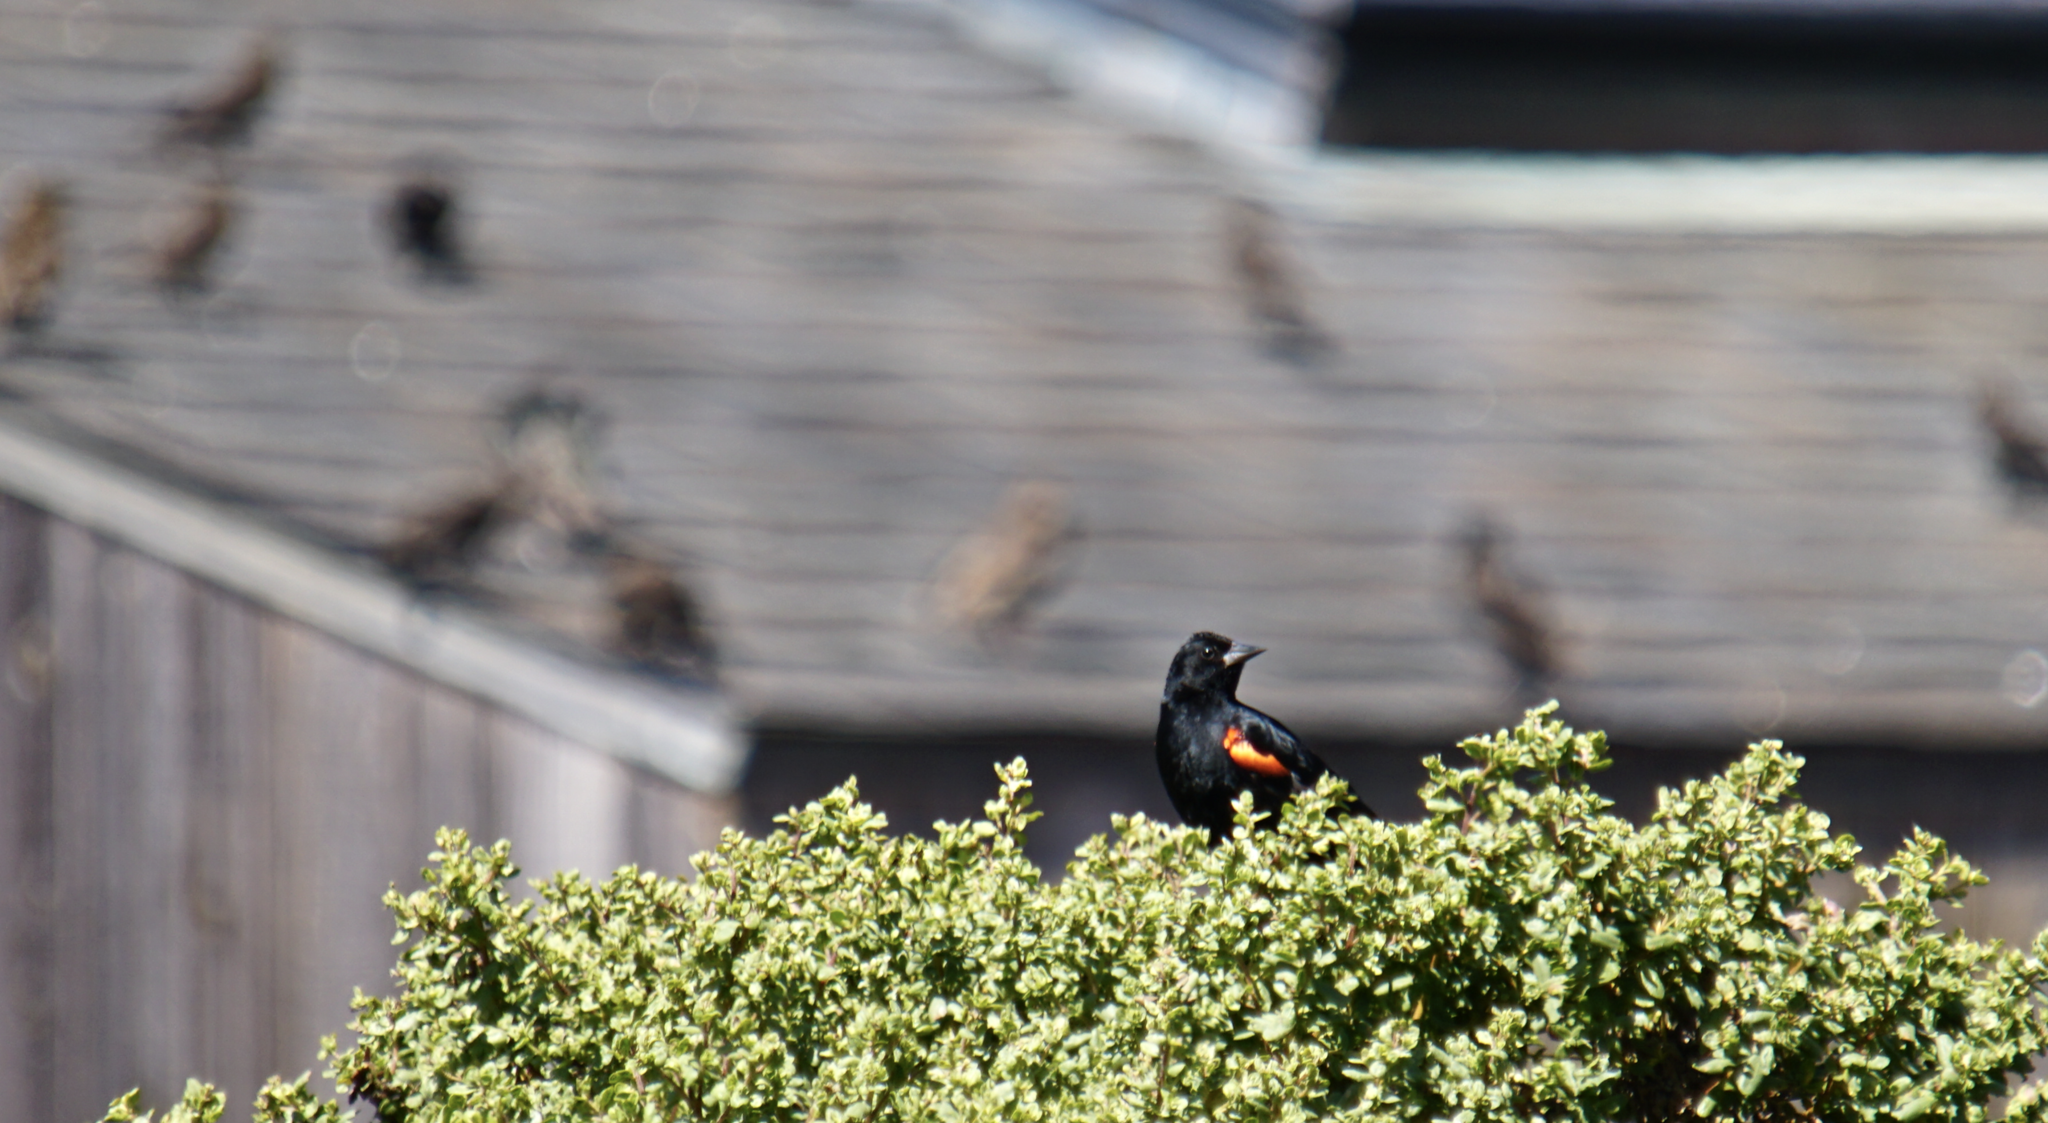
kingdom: Animalia
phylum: Chordata
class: Aves
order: Passeriformes
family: Icteridae
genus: Agelaius
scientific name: Agelaius phoeniceus
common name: Red-winged blackbird
